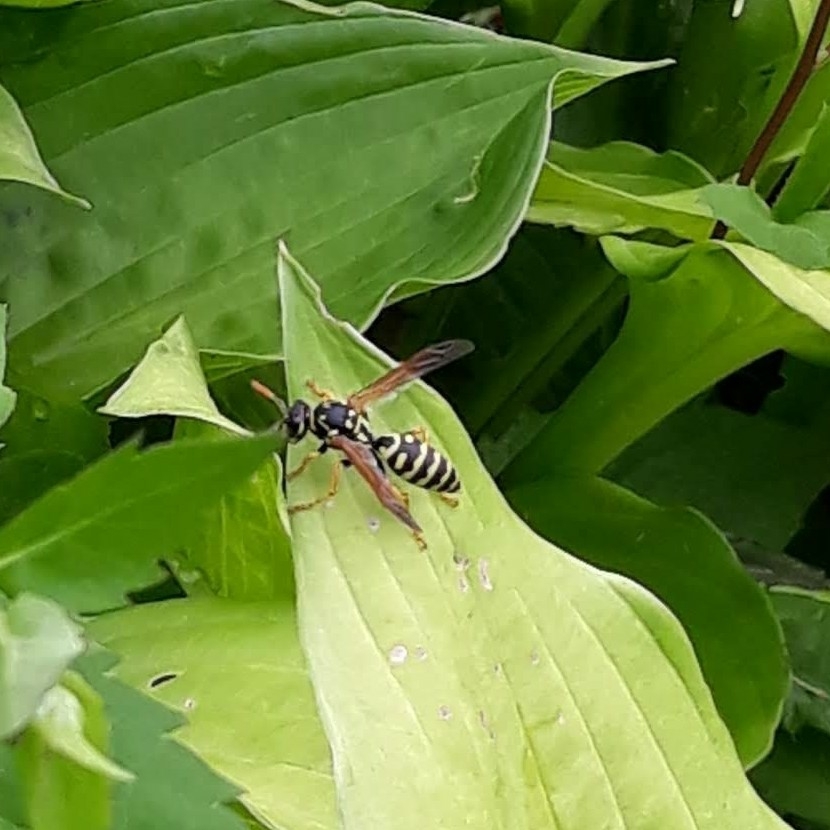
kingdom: Animalia
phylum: Arthropoda
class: Insecta
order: Hymenoptera
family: Eumenidae
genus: Polistes
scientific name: Polistes dominula
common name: Paper wasp
